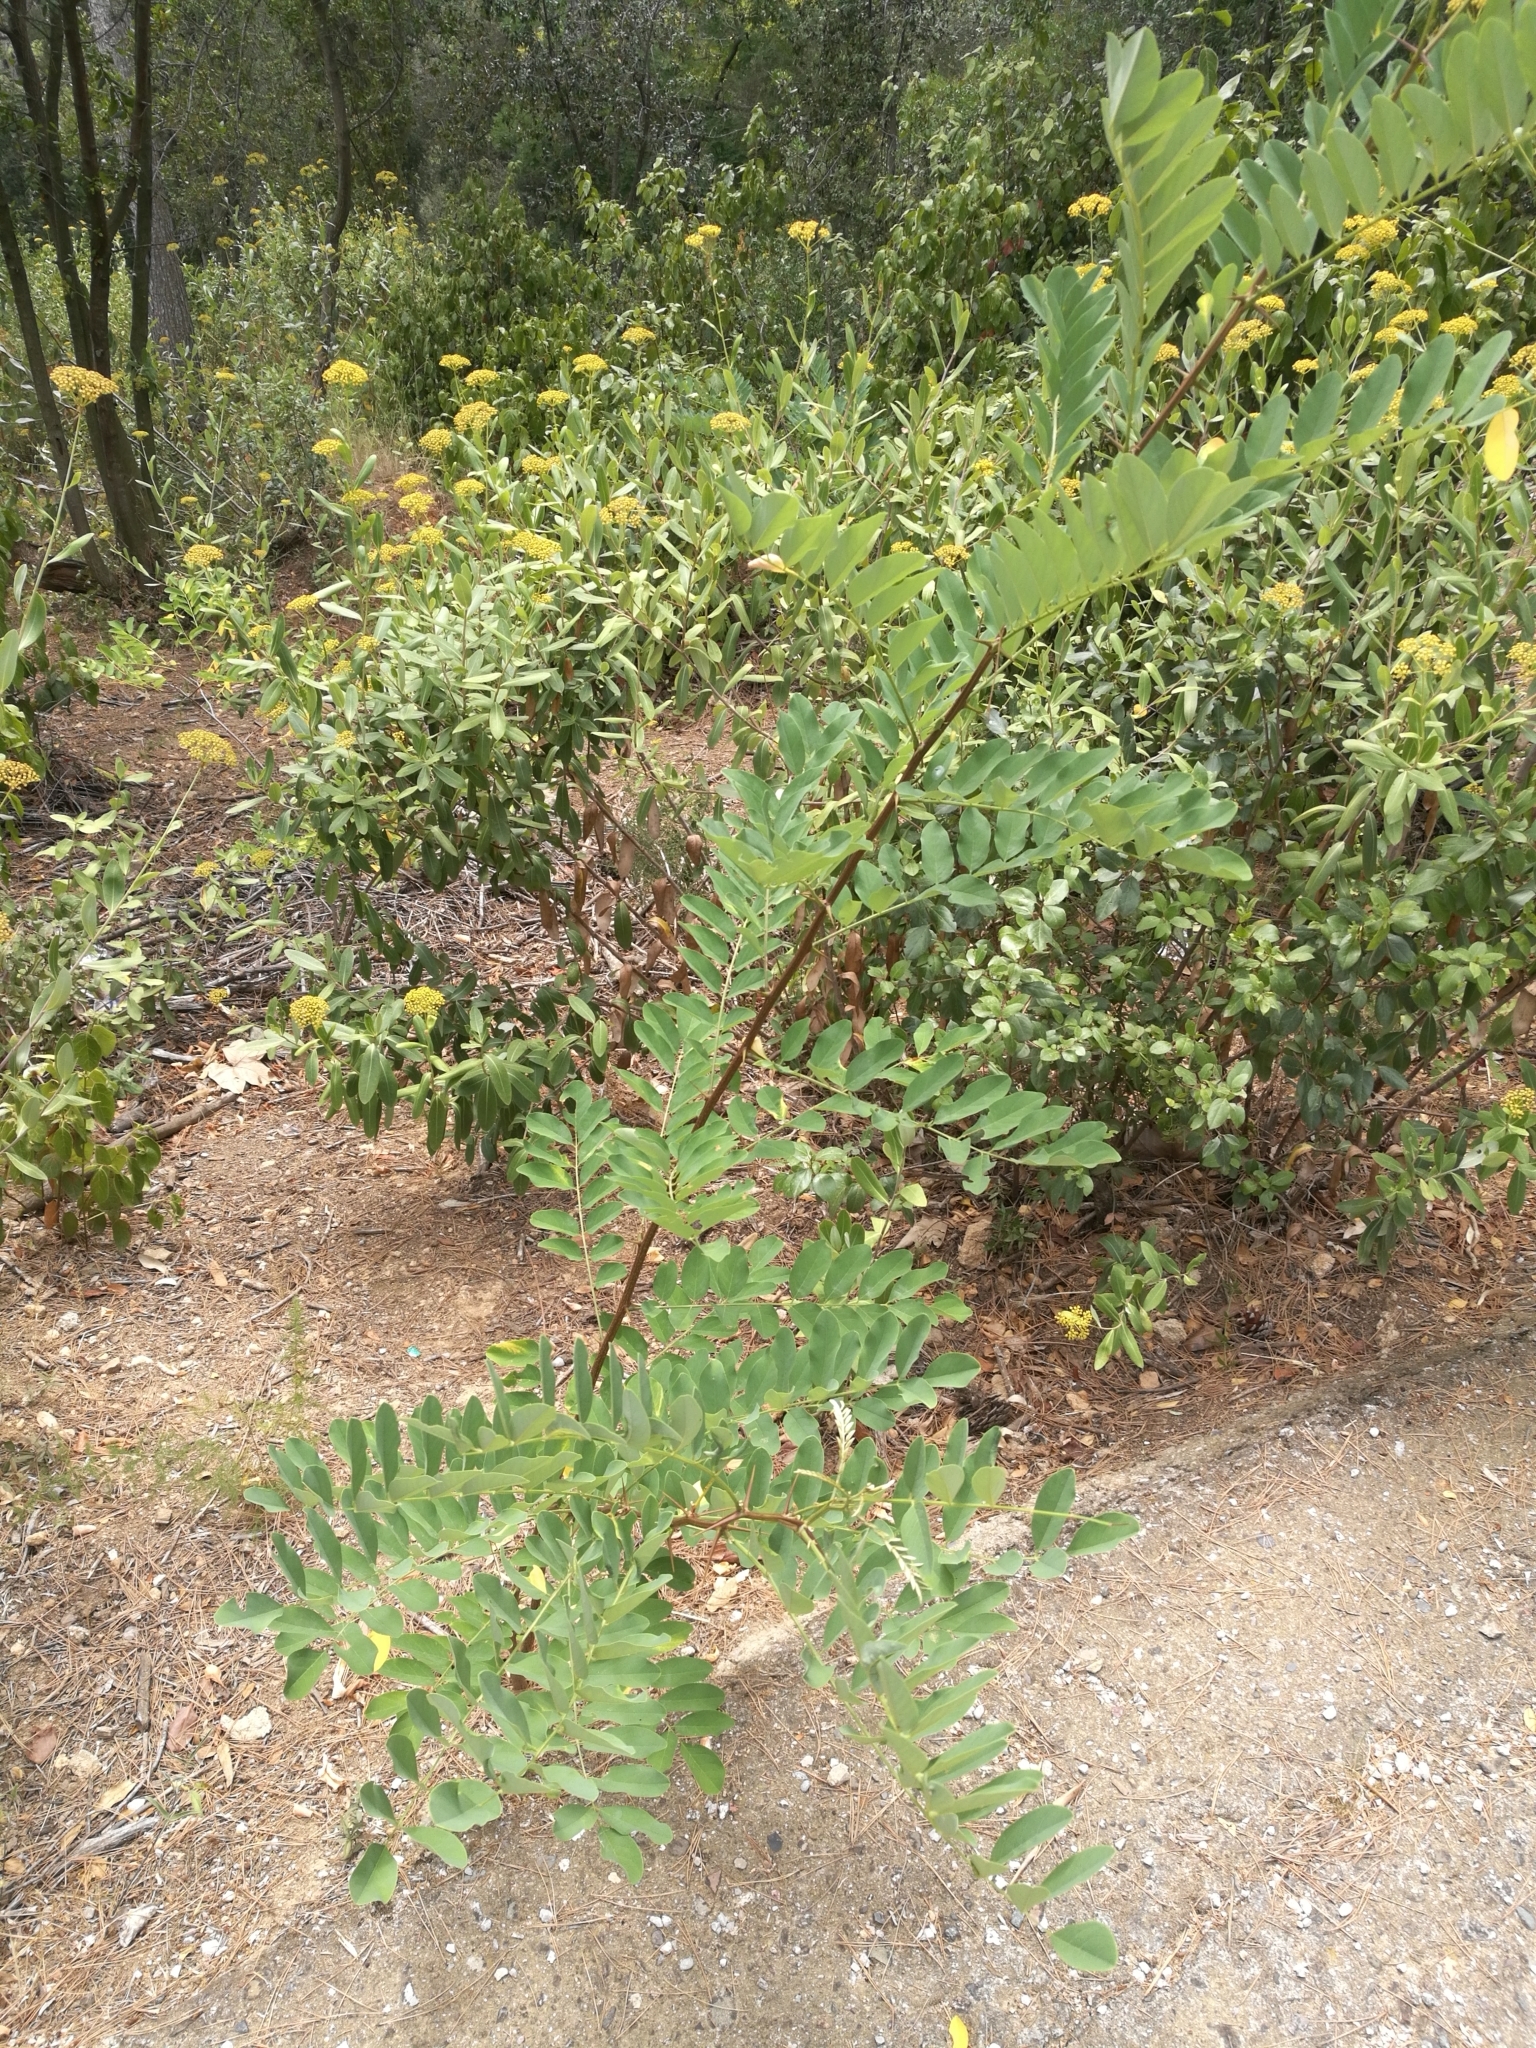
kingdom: Plantae
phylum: Tracheophyta
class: Magnoliopsida
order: Fabales
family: Fabaceae
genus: Robinia
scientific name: Robinia pseudoacacia
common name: Black locust
